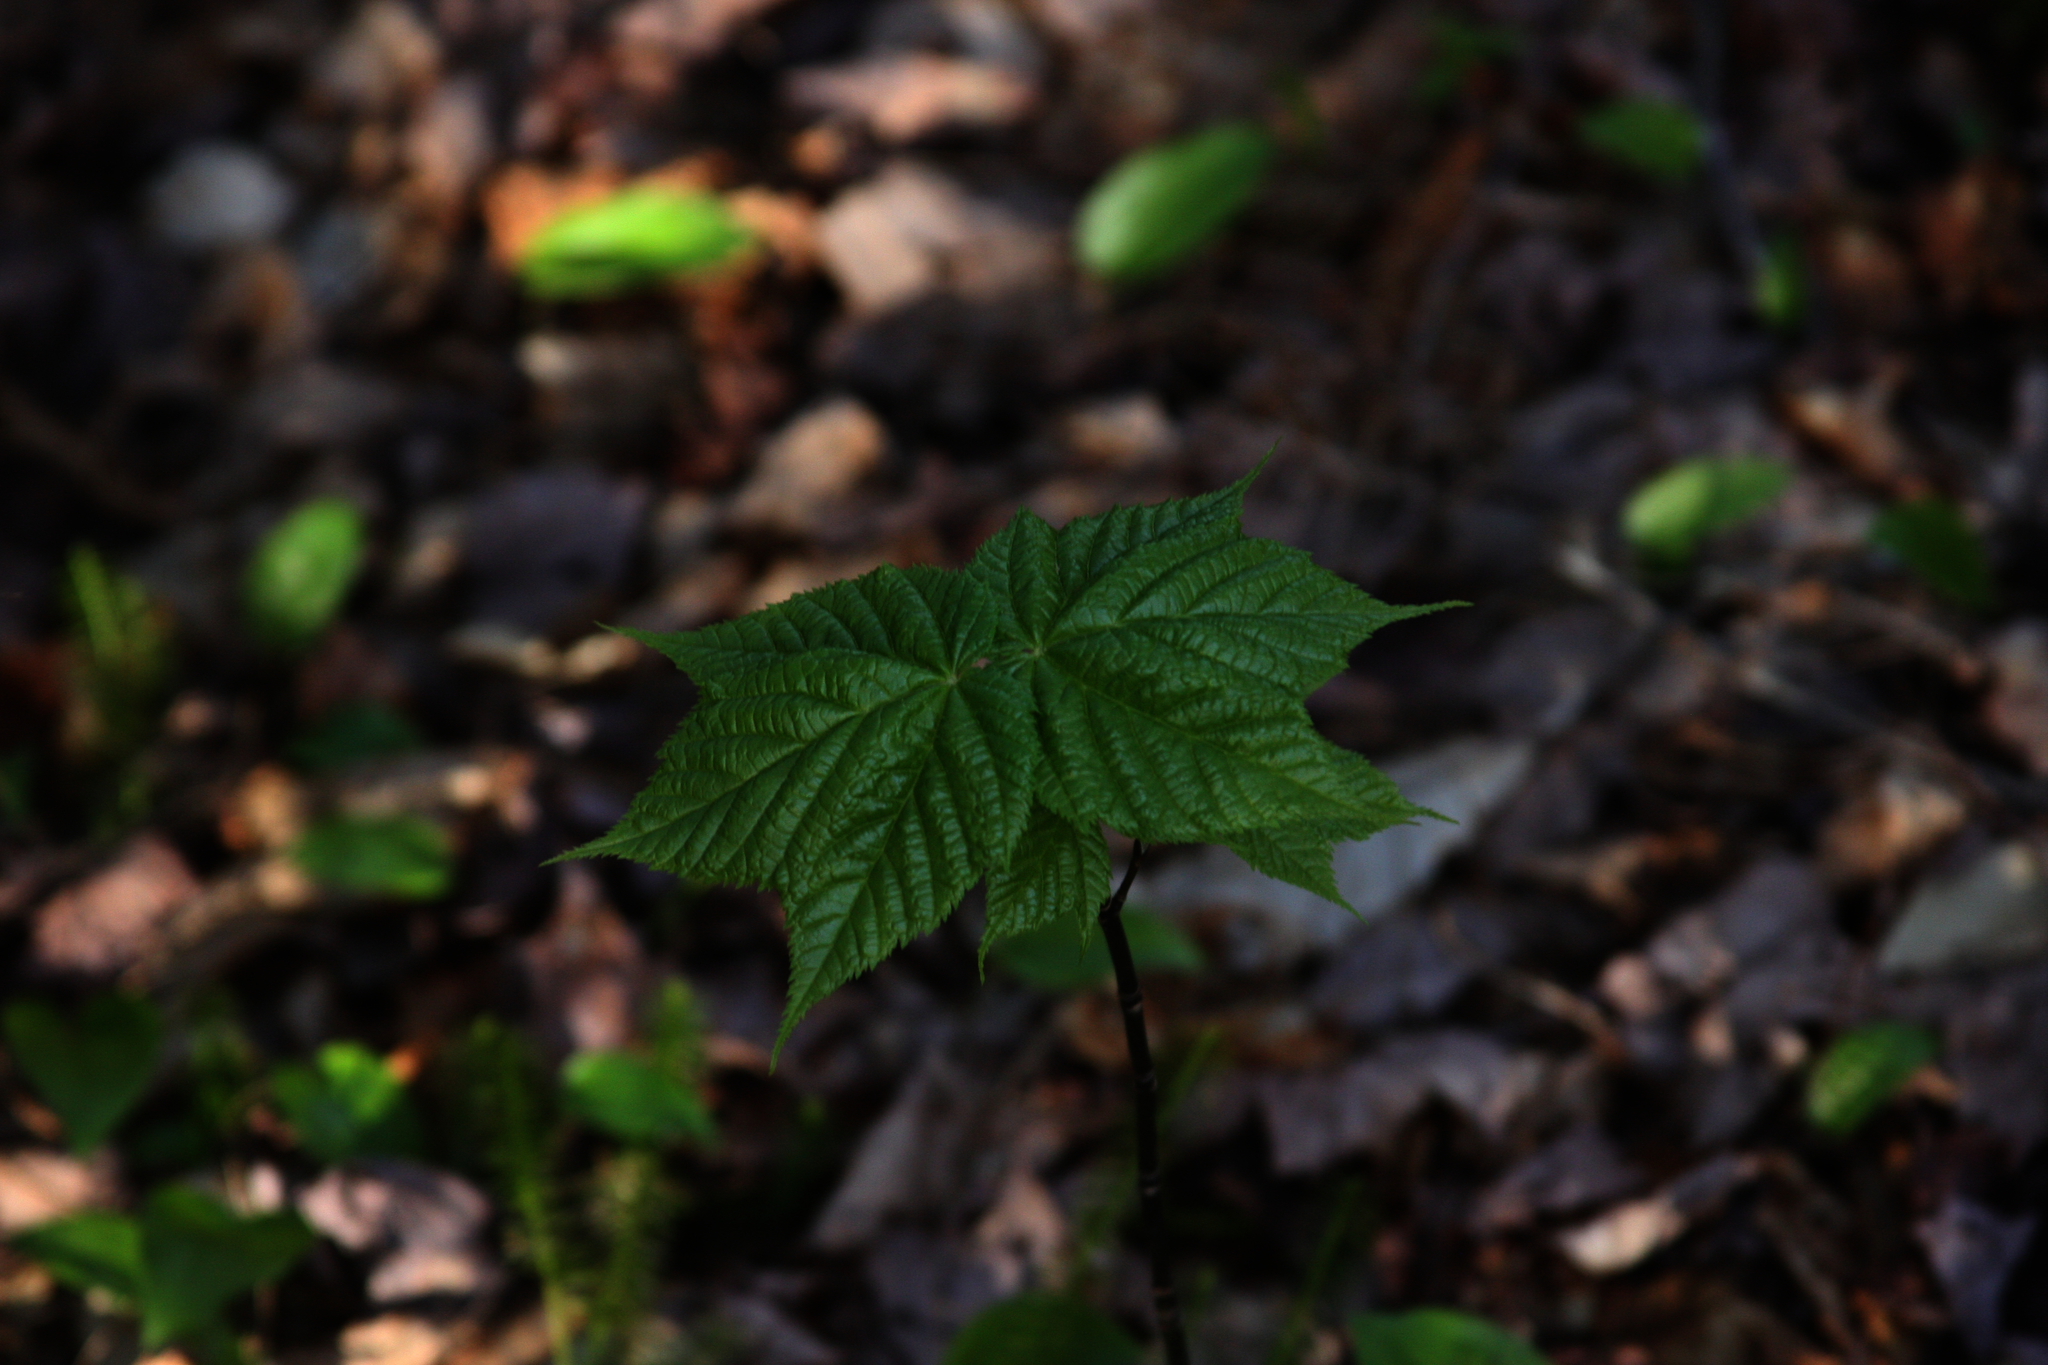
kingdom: Plantae
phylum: Tracheophyta
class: Magnoliopsida
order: Sapindales
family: Sapindaceae
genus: Acer
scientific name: Acer pensylvanicum
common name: Moosewood
